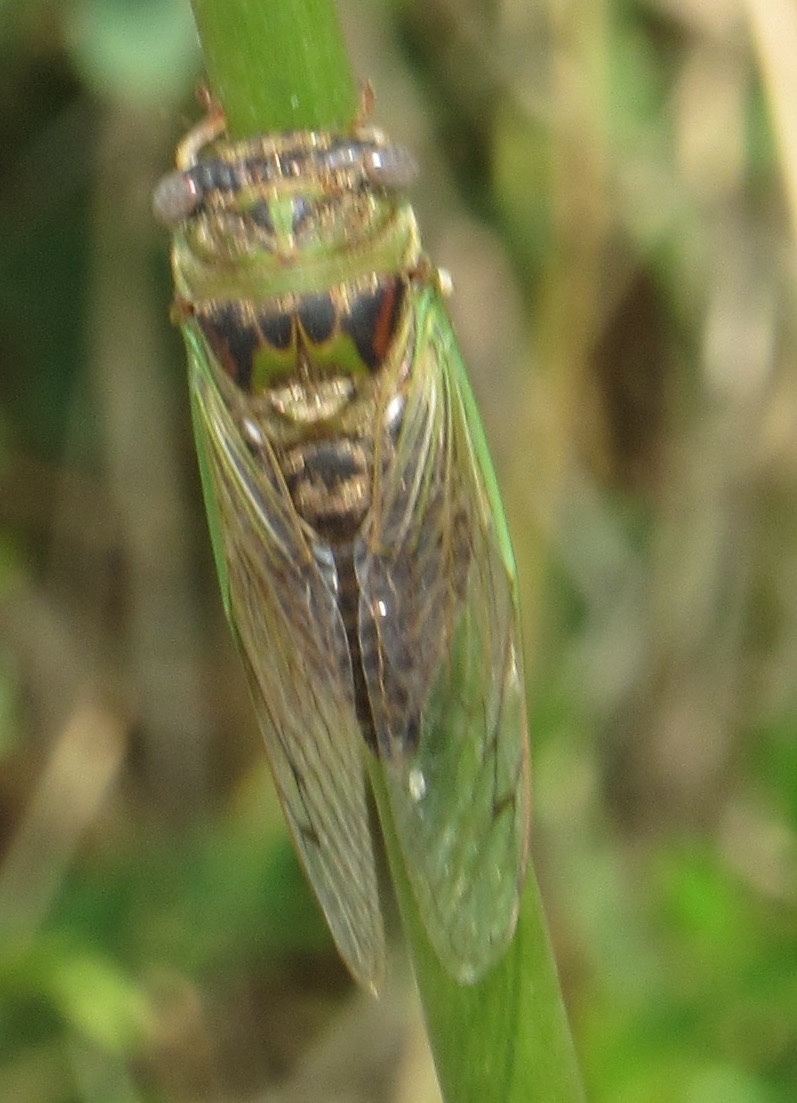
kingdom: Animalia
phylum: Arthropoda
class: Insecta
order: Hemiptera
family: Cicadidae
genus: Neotibicen
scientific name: Neotibicen aurifer
